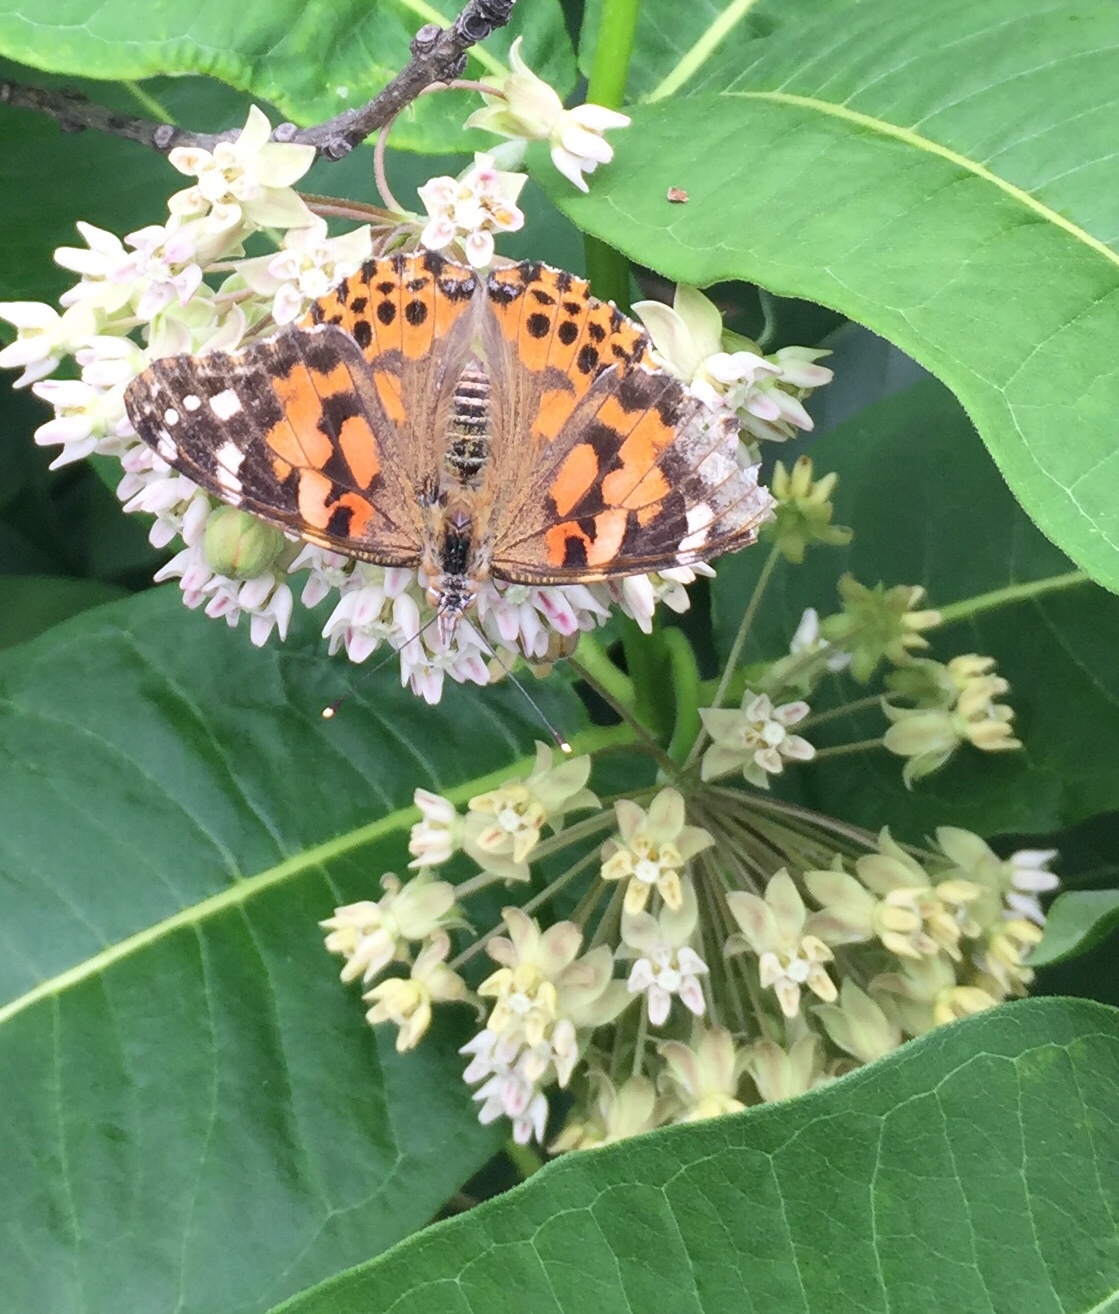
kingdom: Animalia
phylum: Arthropoda
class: Insecta
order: Lepidoptera
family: Nymphalidae
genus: Vanessa
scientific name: Vanessa cardui
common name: Painted lady
